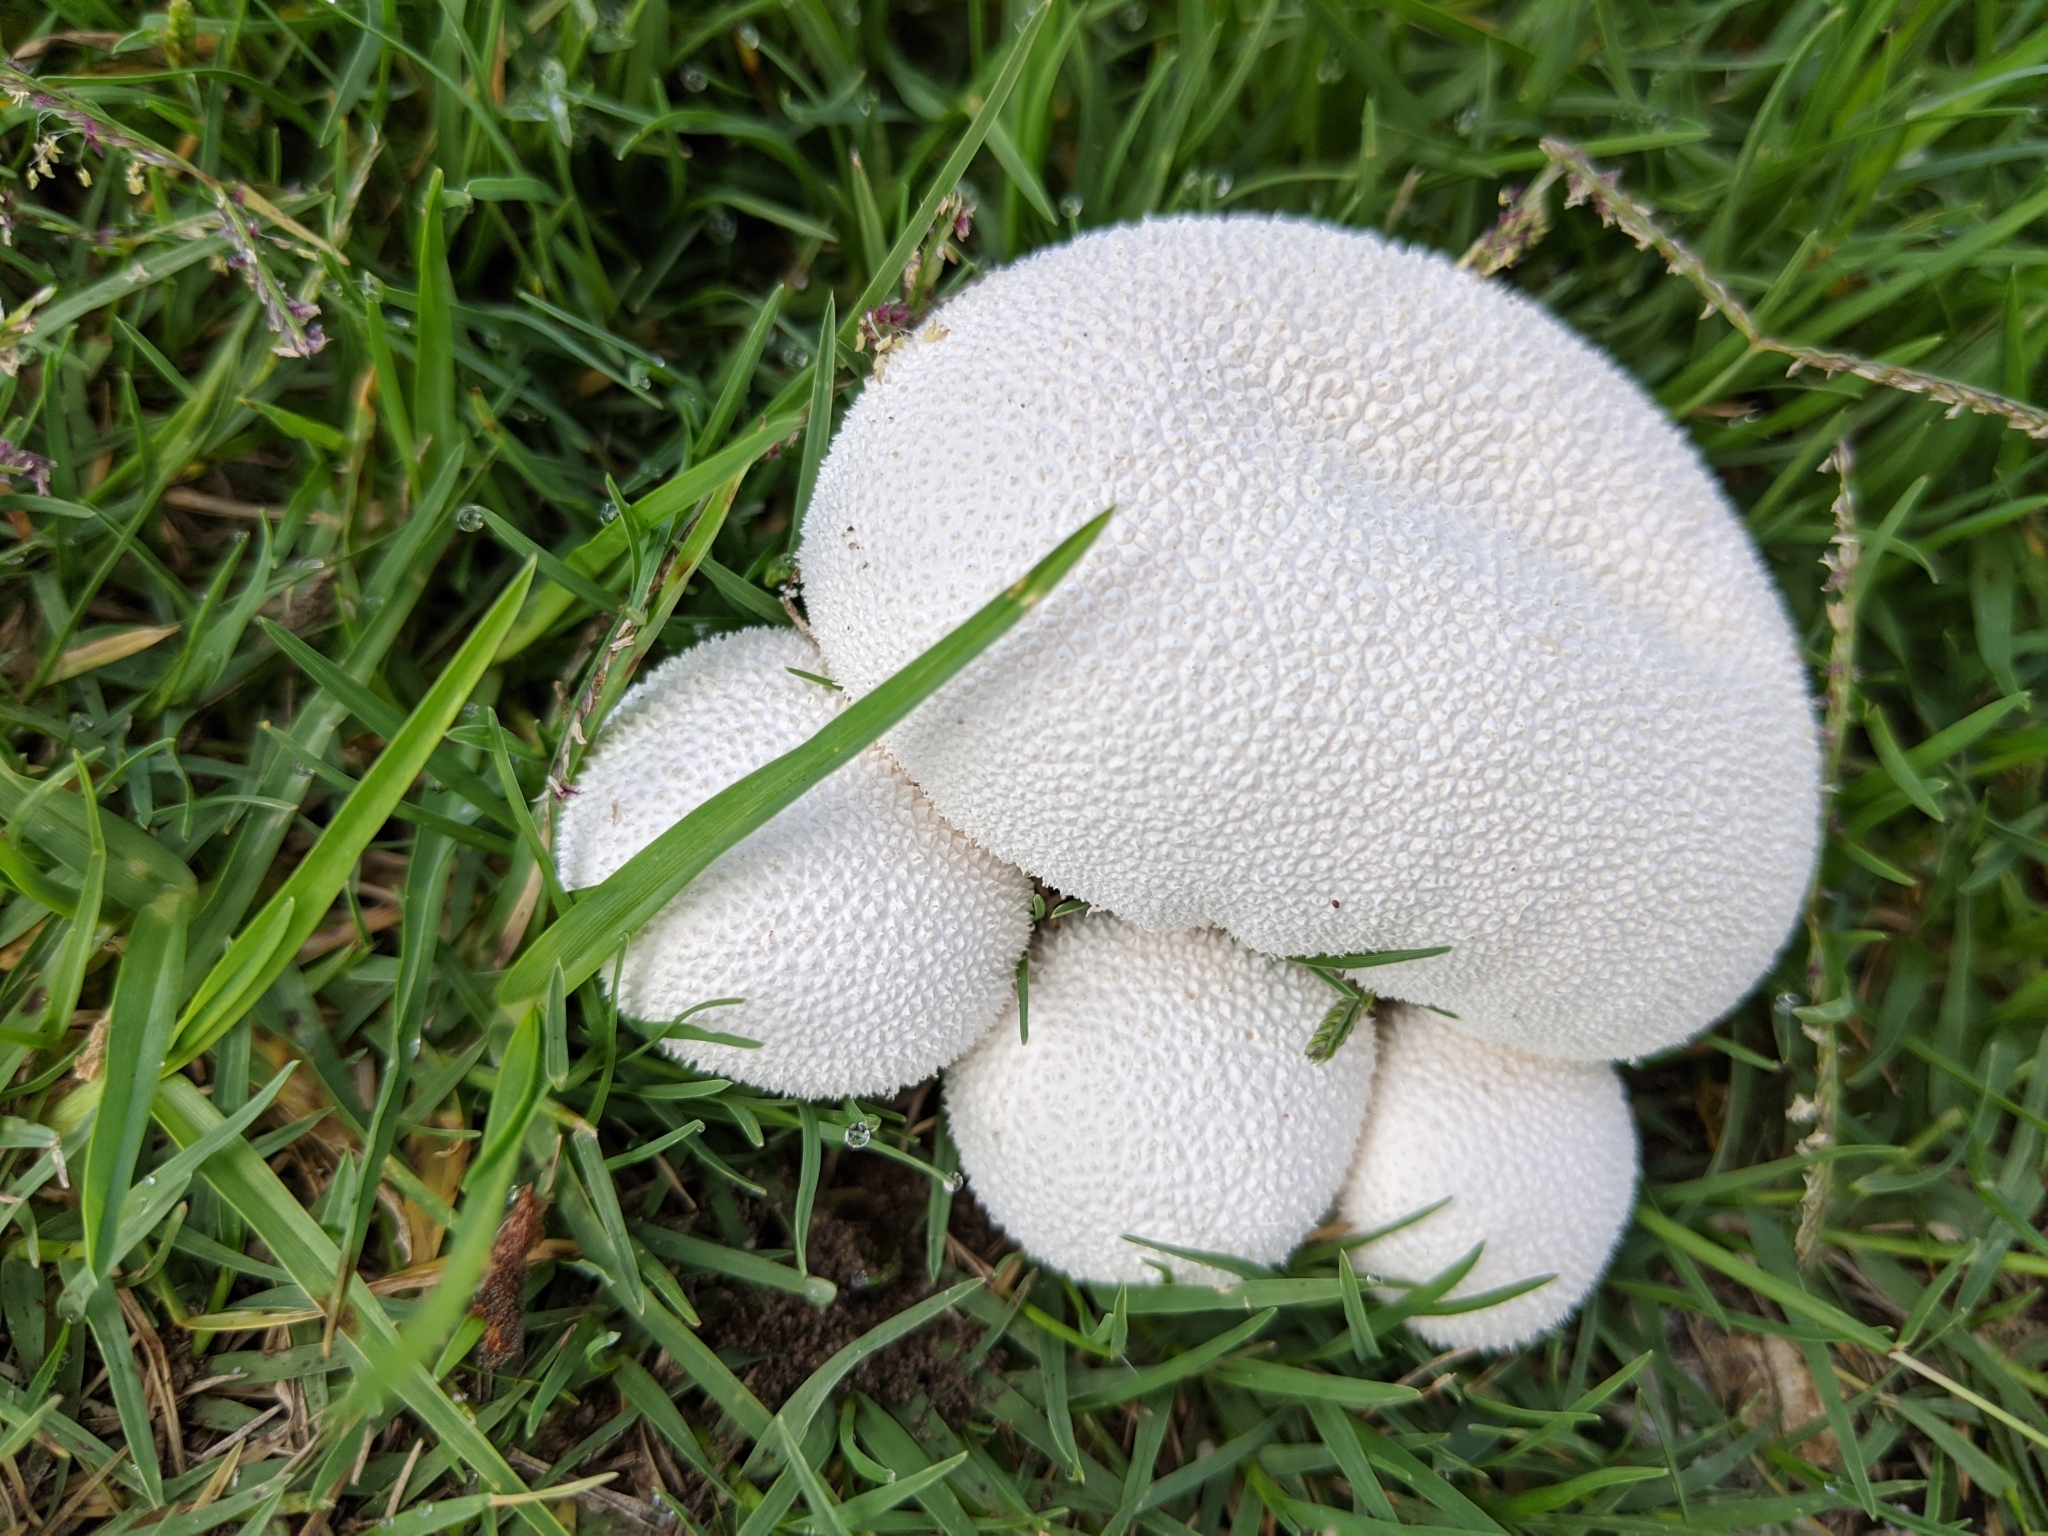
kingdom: Fungi
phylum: Basidiomycota
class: Agaricomycetes
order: Agaricales
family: Lycoperdaceae
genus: Lycoperdon
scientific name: Lycoperdon pratense
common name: Meadow puffball
